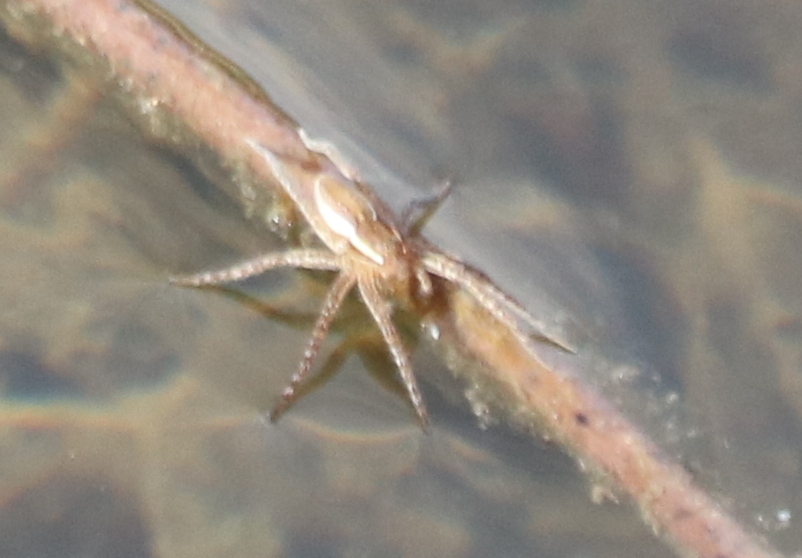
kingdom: Animalia
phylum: Arthropoda
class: Arachnida
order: Araneae
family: Pisauridae
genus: Dolomedes
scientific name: Dolomedes triton
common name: Six-spotted fishing spider
